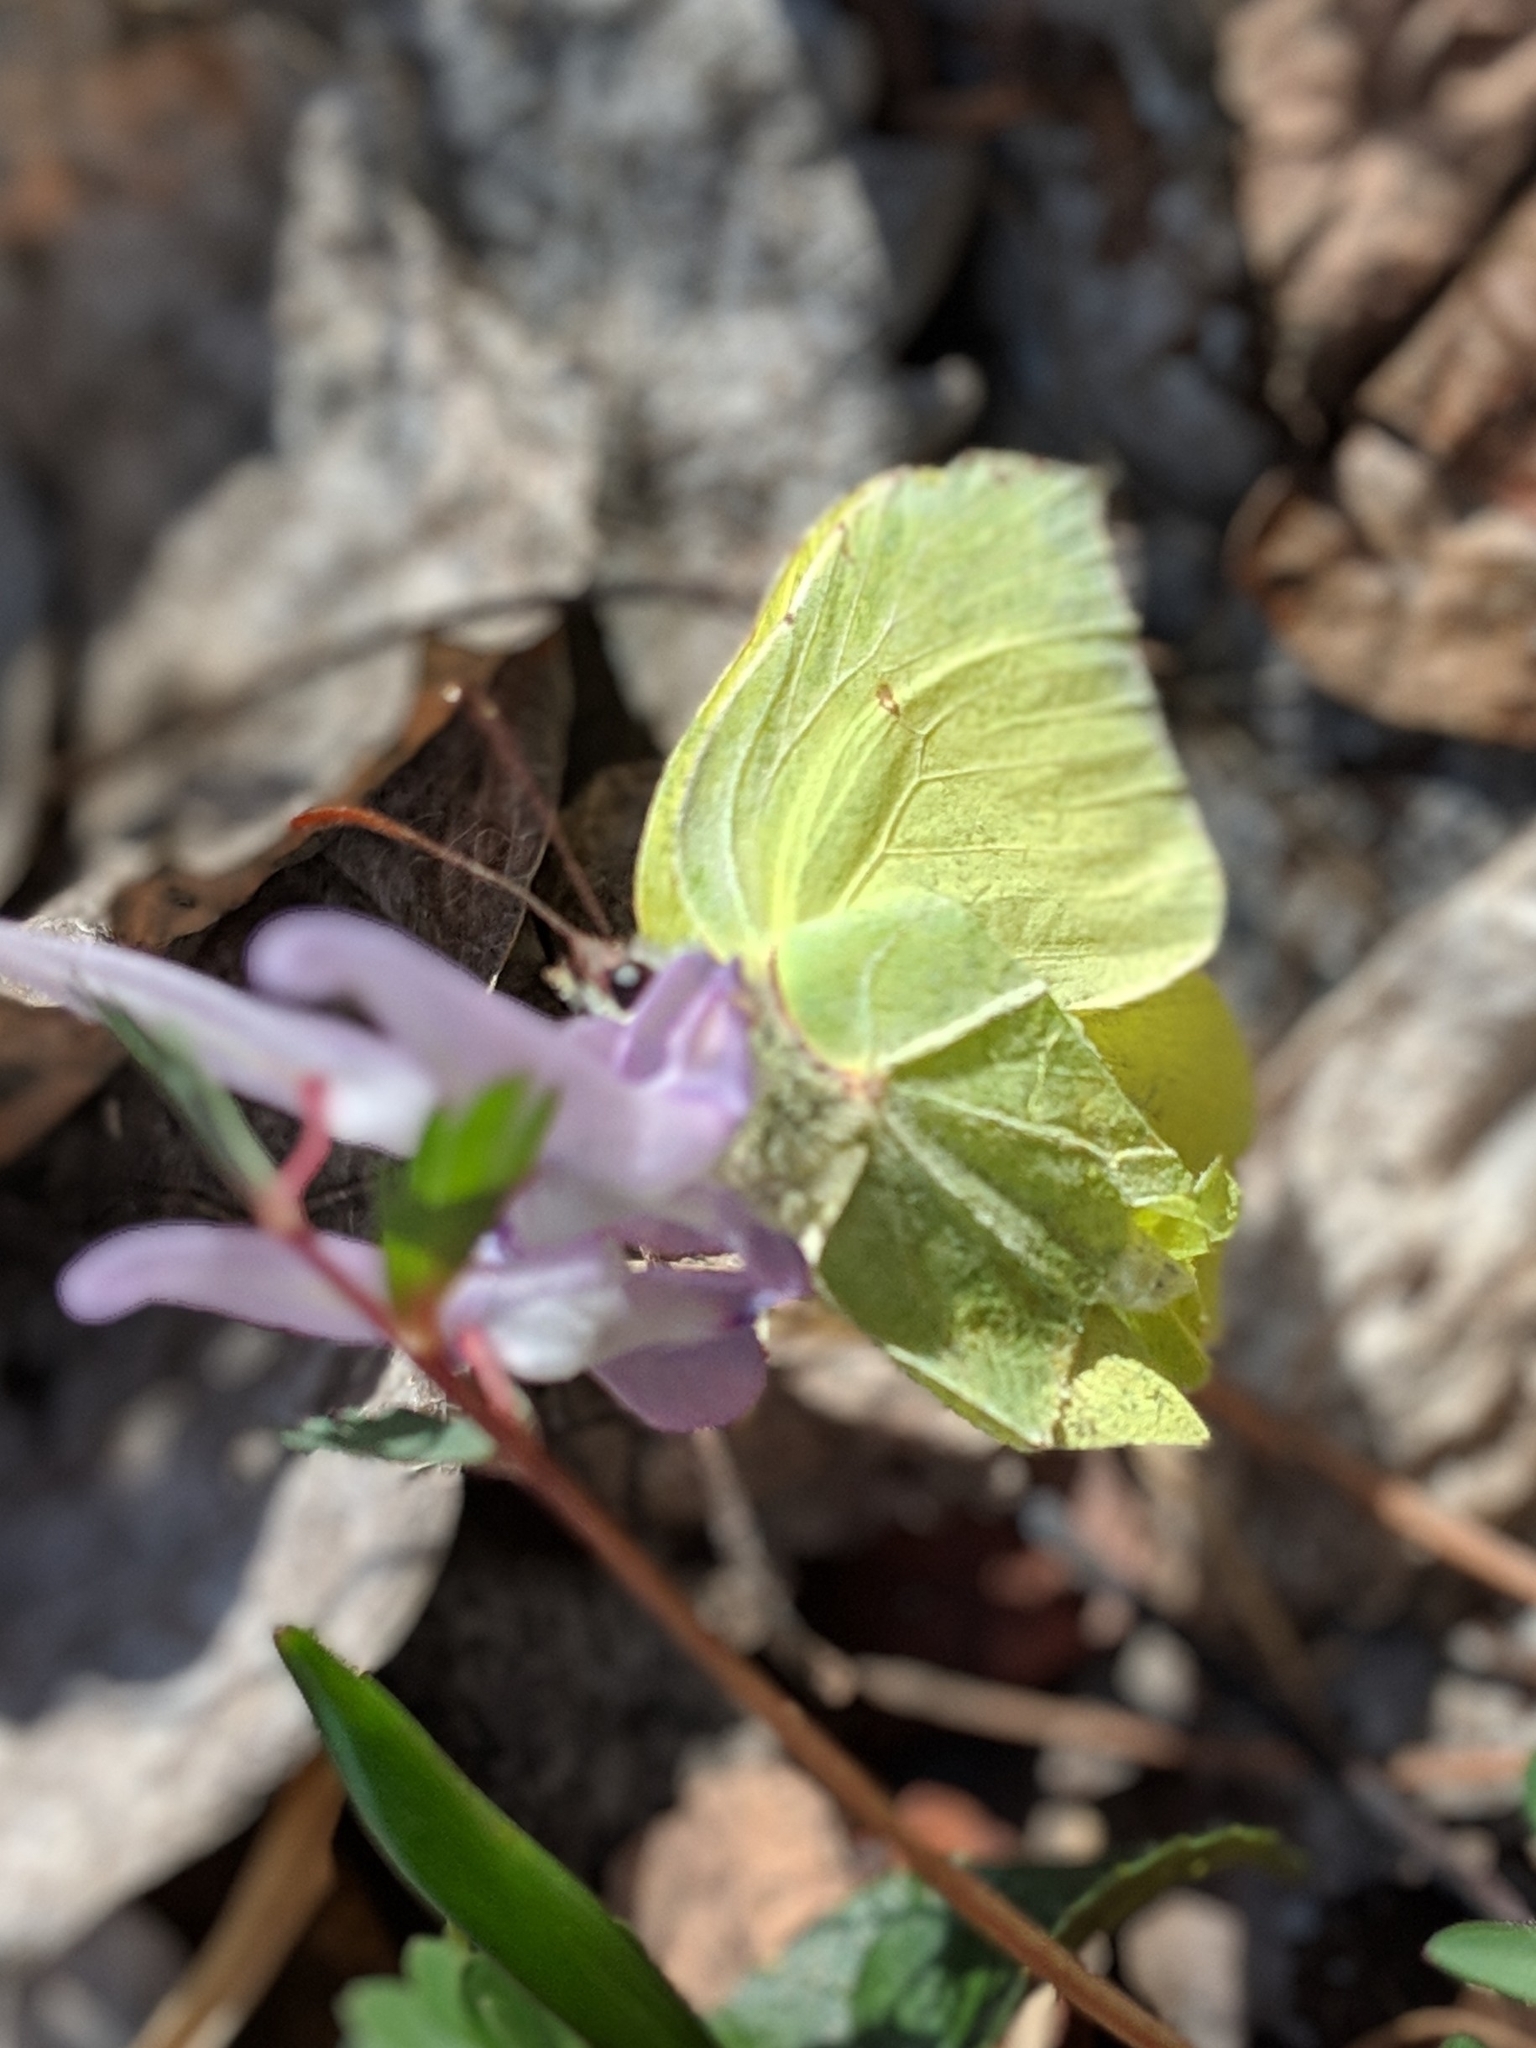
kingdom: Animalia
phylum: Arthropoda
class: Insecta
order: Lepidoptera
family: Pieridae
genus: Gonepteryx
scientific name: Gonepteryx rhamni
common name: Brimstone
